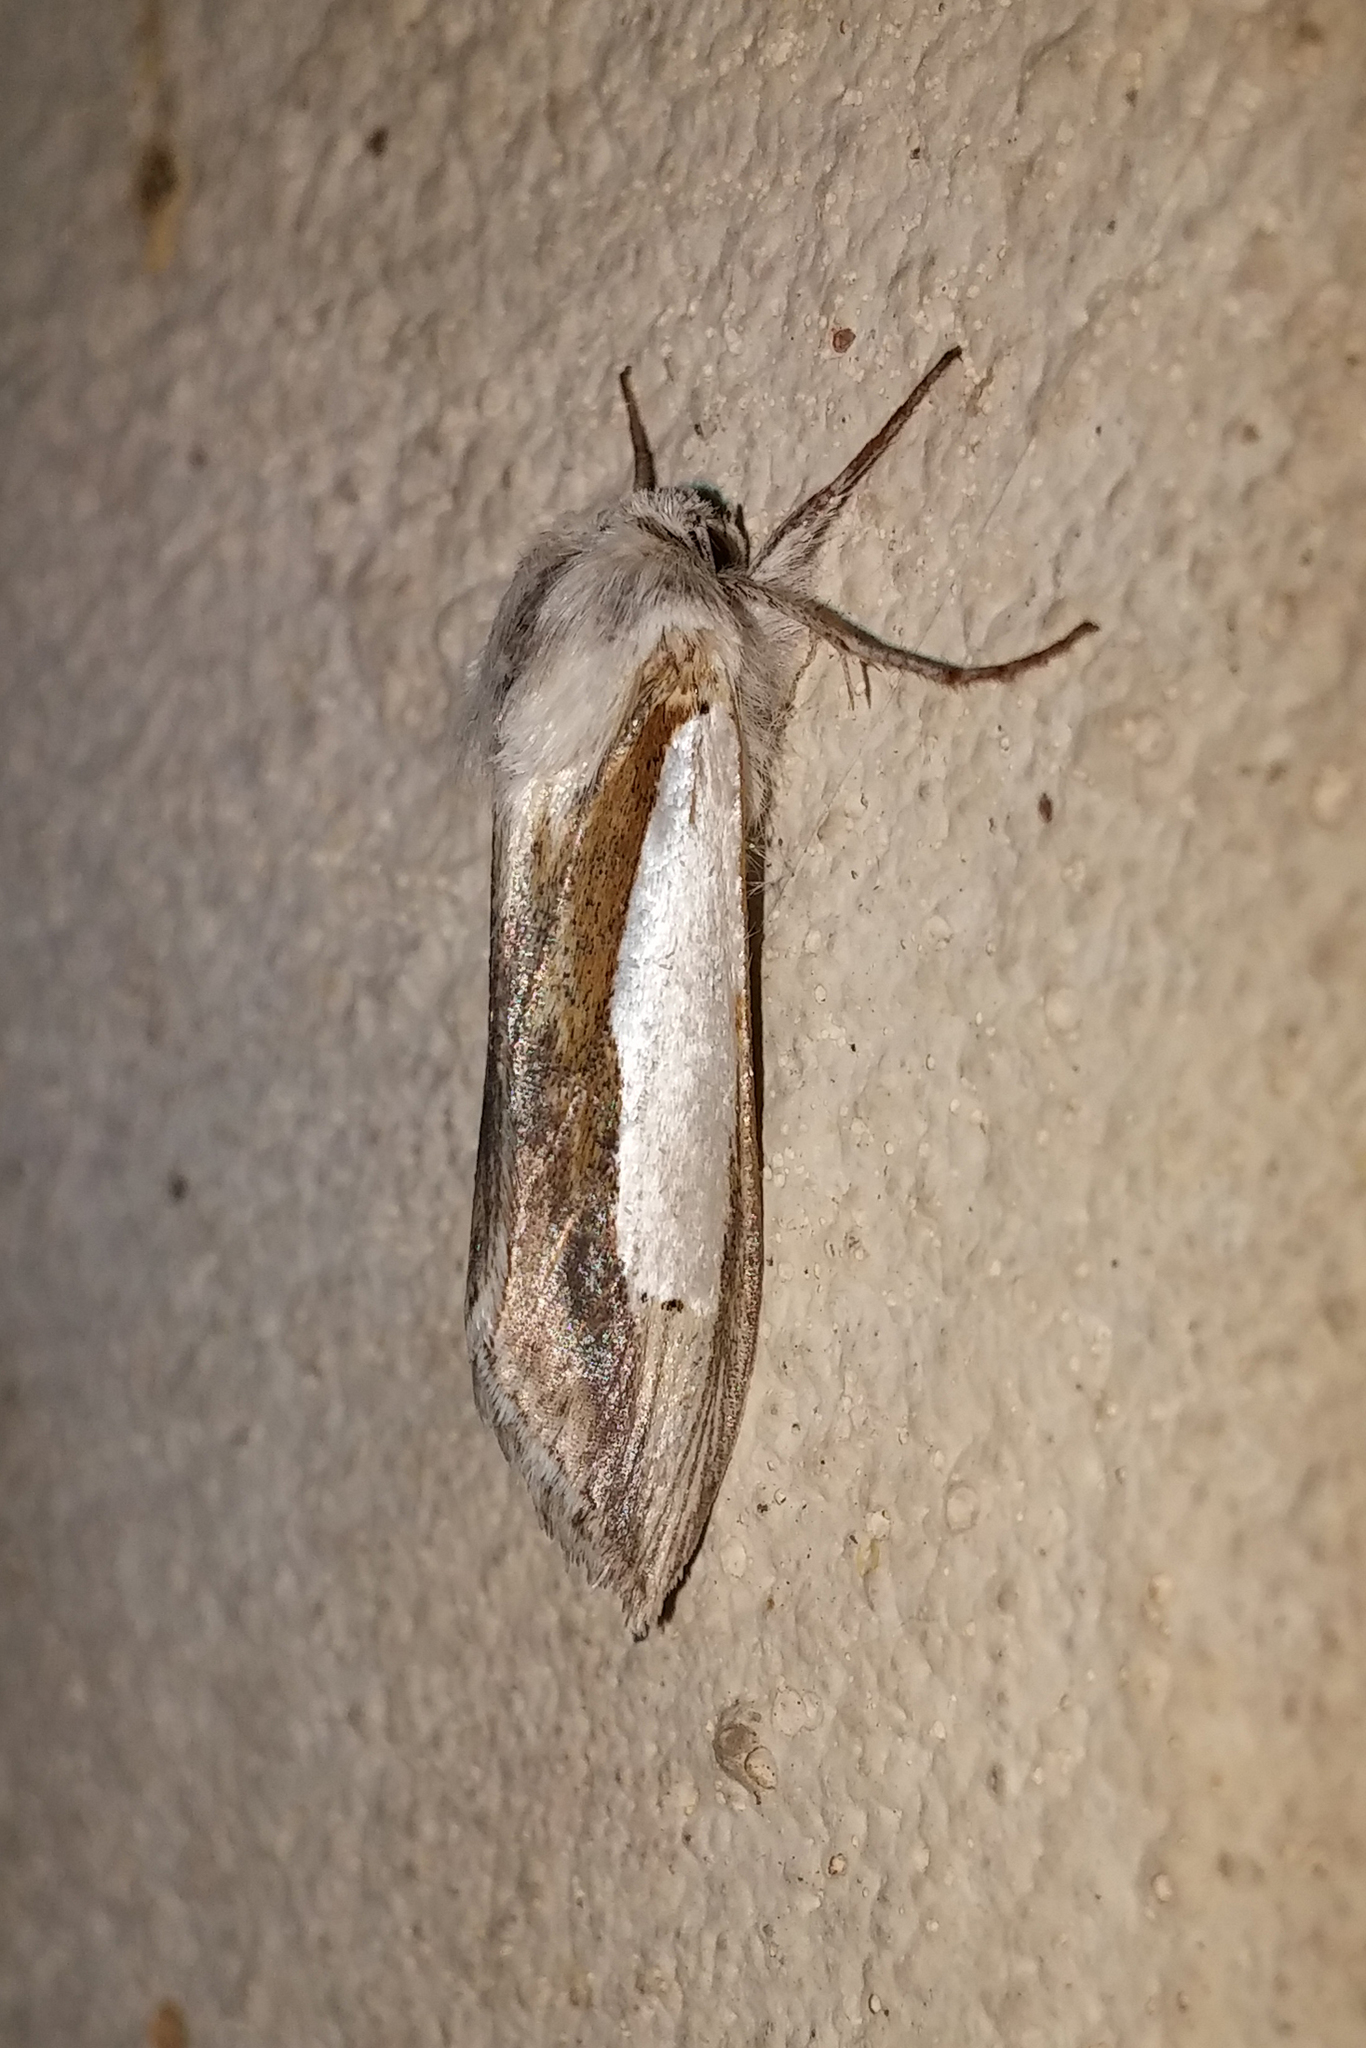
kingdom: Animalia
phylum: Arthropoda
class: Insecta
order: Lepidoptera
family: Noctuidae
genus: Cucullia
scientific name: Cucullia argentina
